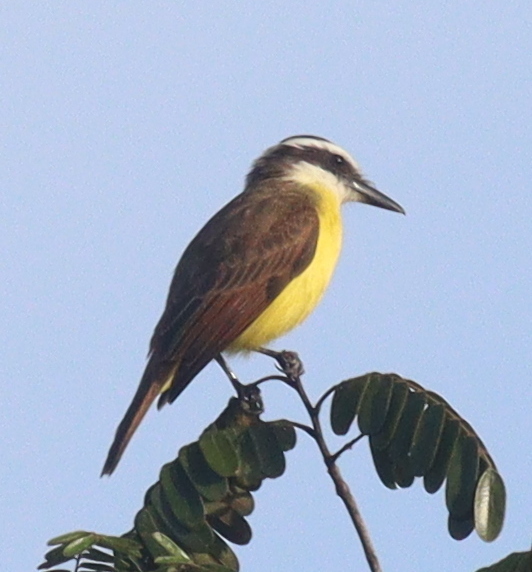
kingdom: Animalia
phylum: Chordata
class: Aves
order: Passeriformes
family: Tyrannidae
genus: Pitangus
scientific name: Pitangus sulphuratus
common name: Great kiskadee
